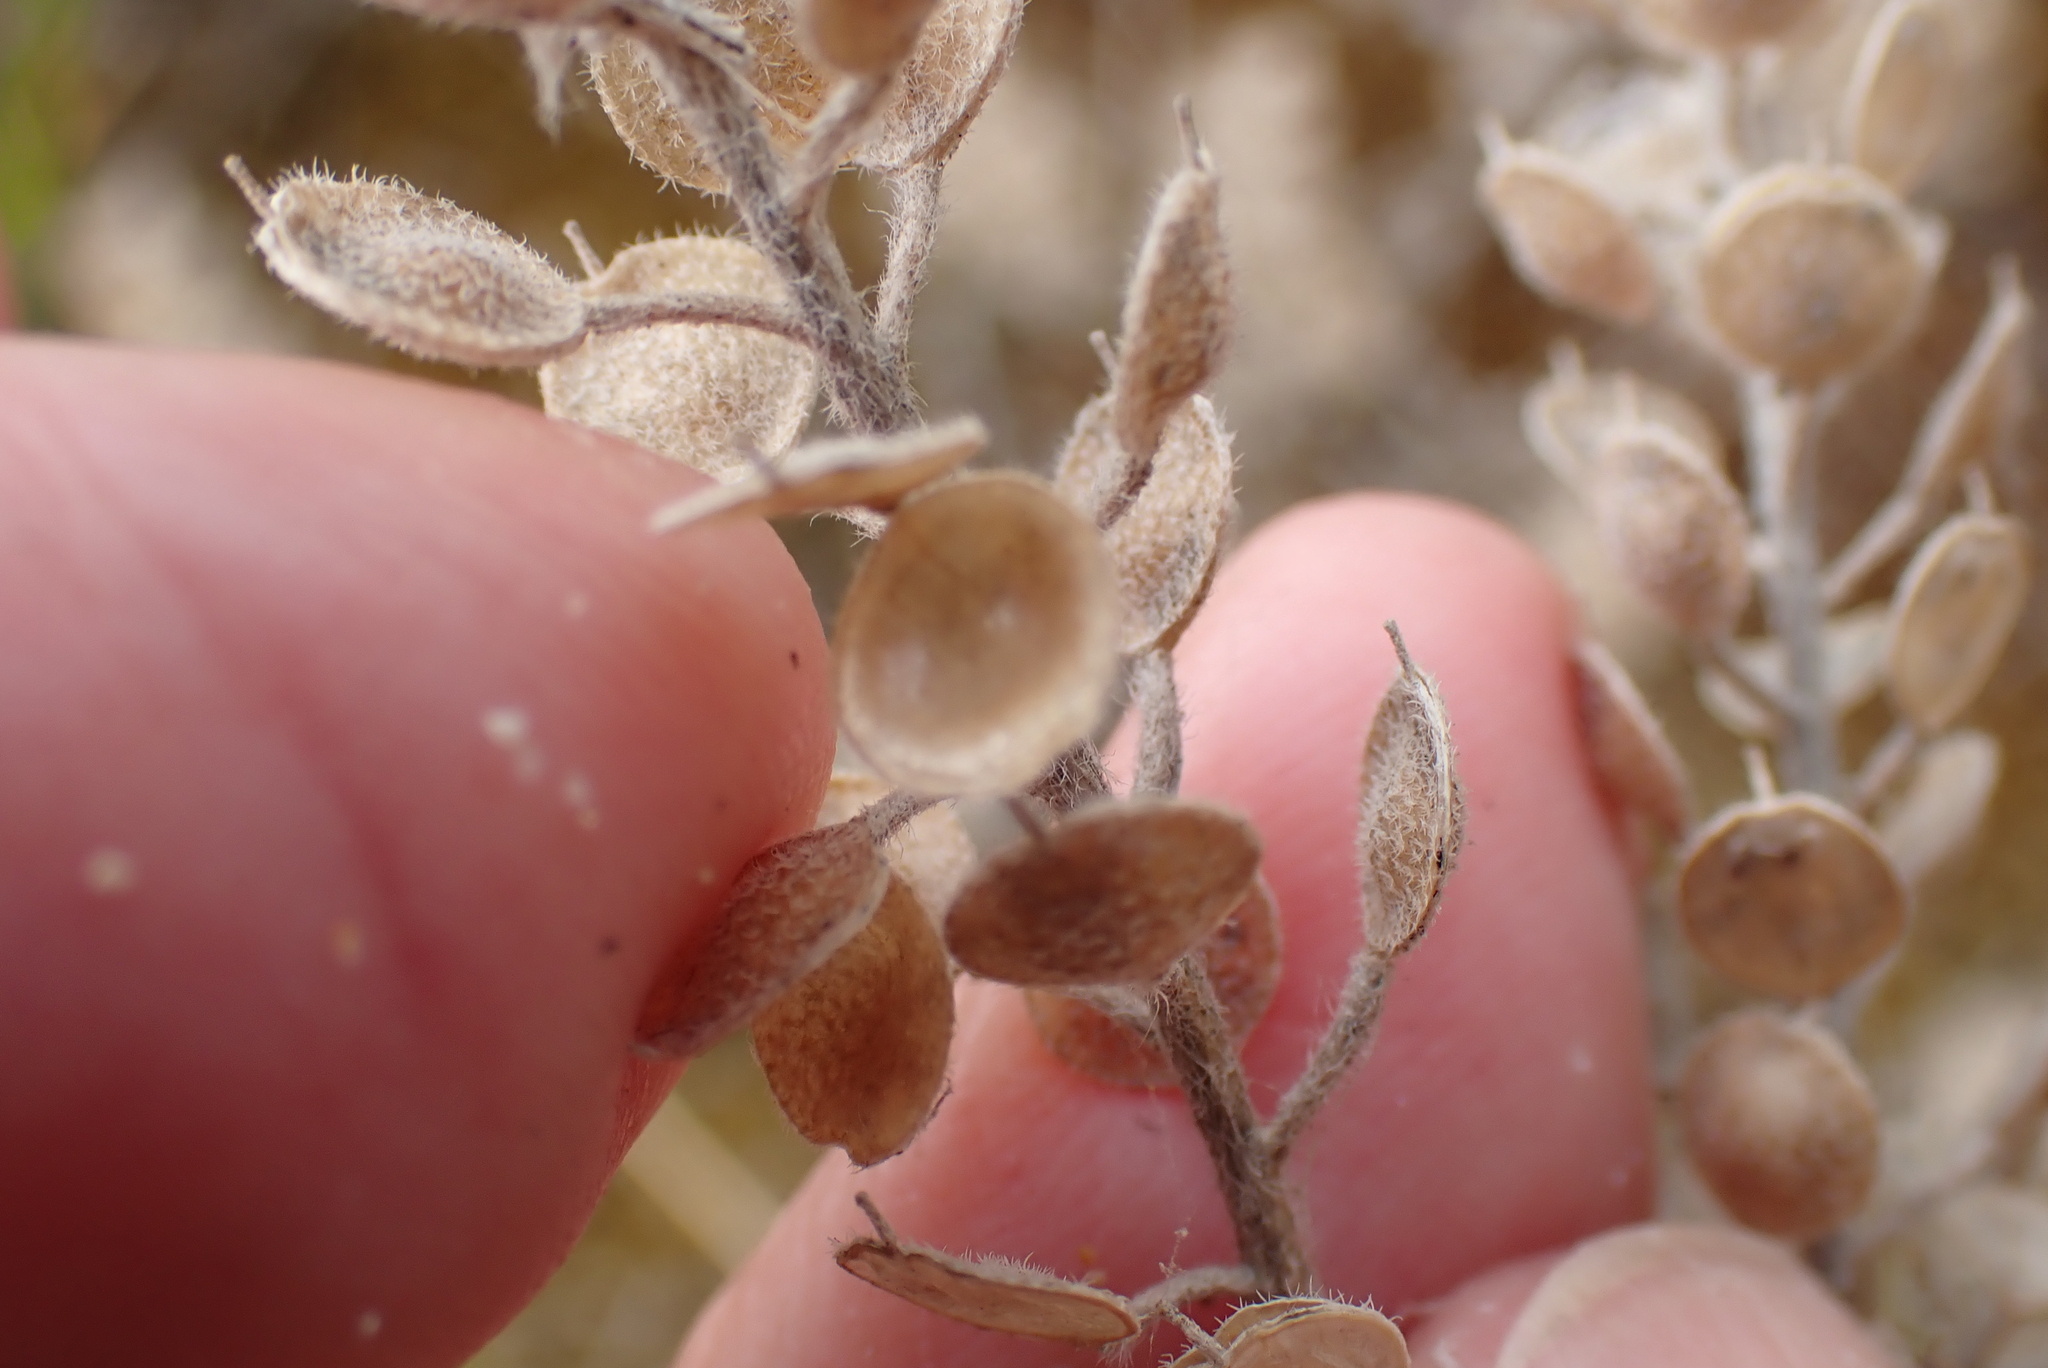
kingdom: Plantae
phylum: Tracheophyta
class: Magnoliopsida
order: Brassicales
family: Brassicaceae
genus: Alyssum
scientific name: Alyssum simplex
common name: Alyssum
